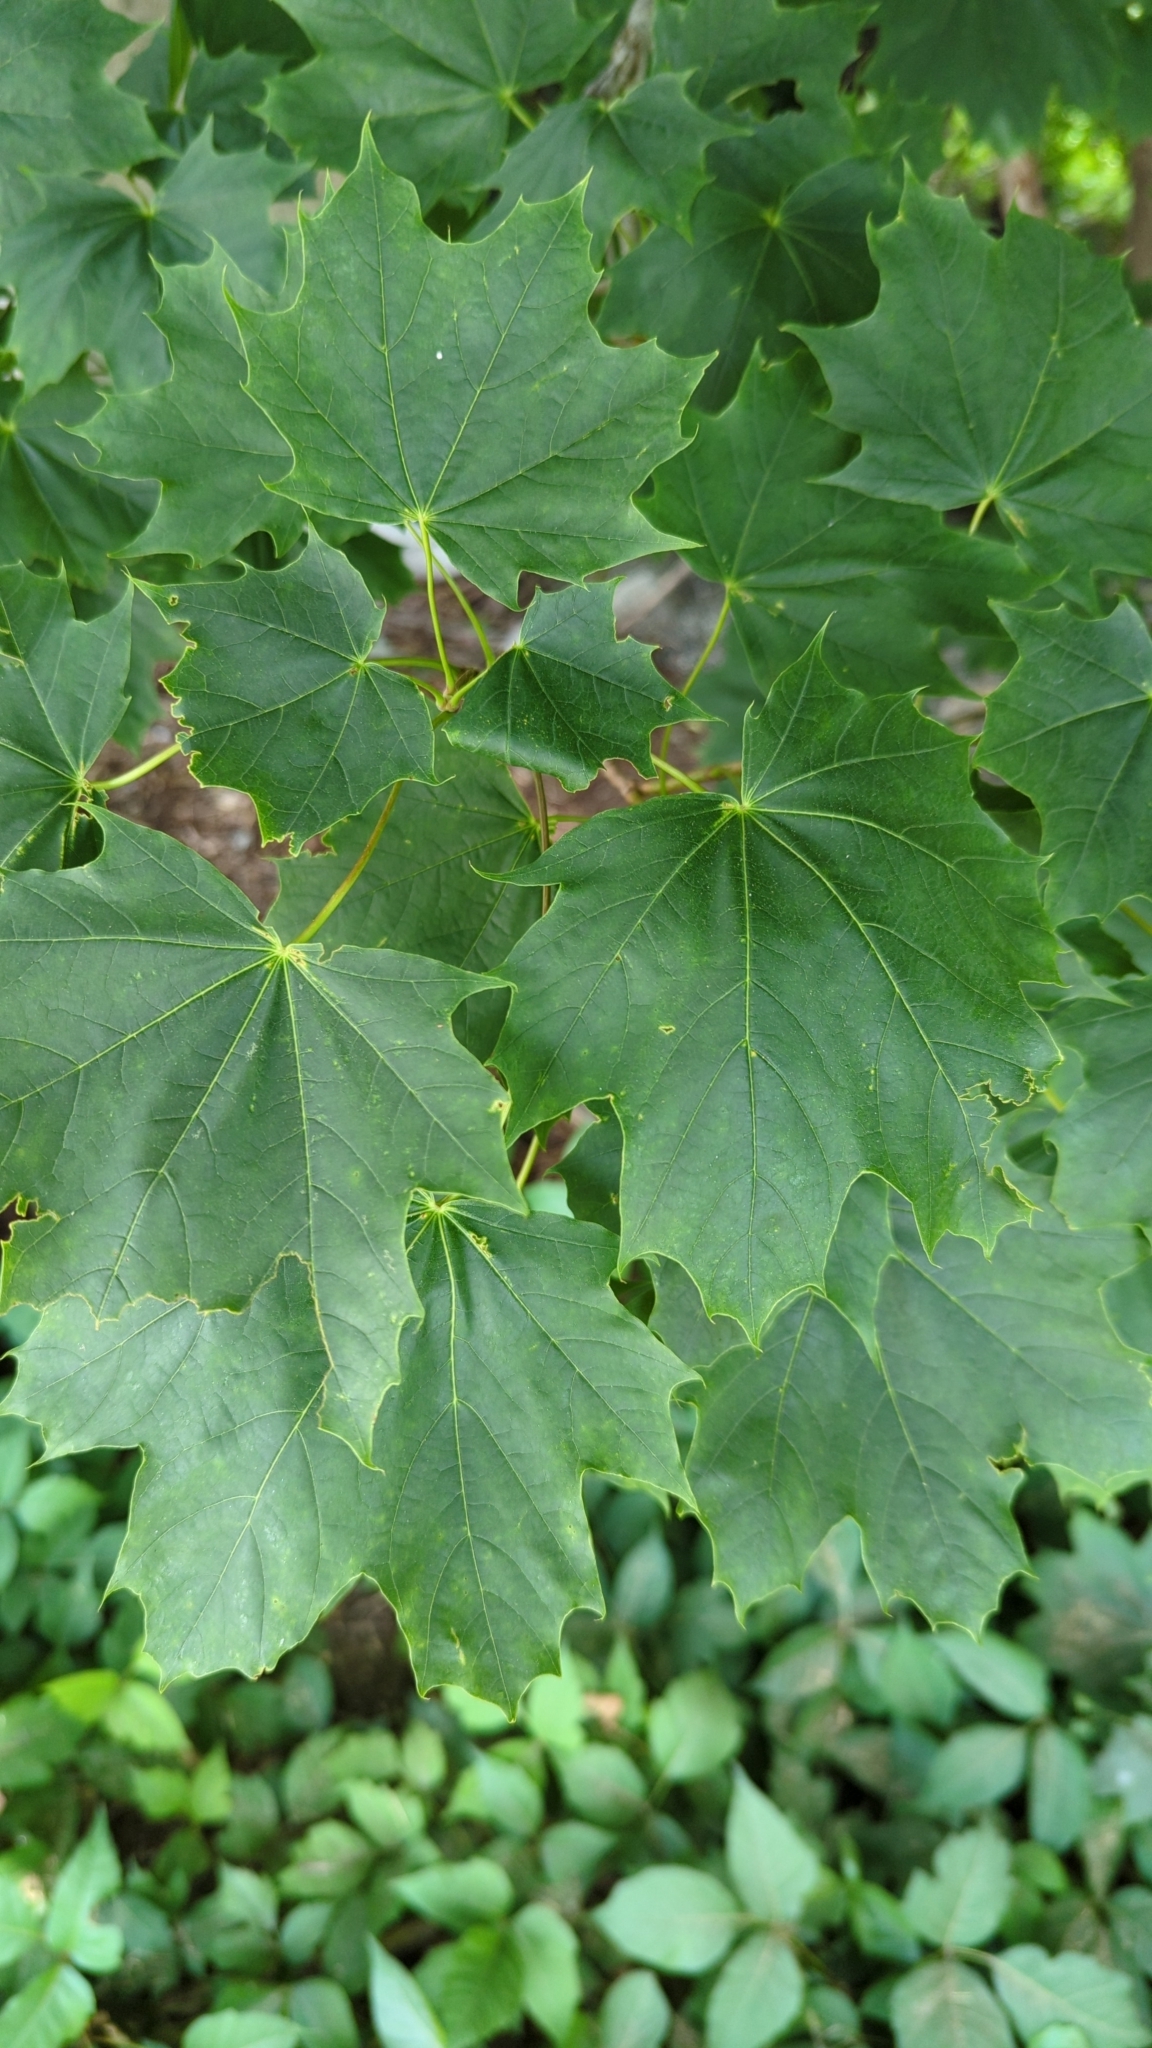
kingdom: Plantae
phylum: Tracheophyta
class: Magnoliopsida
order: Sapindales
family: Sapindaceae
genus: Acer
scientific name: Acer platanoides
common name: Norway maple
